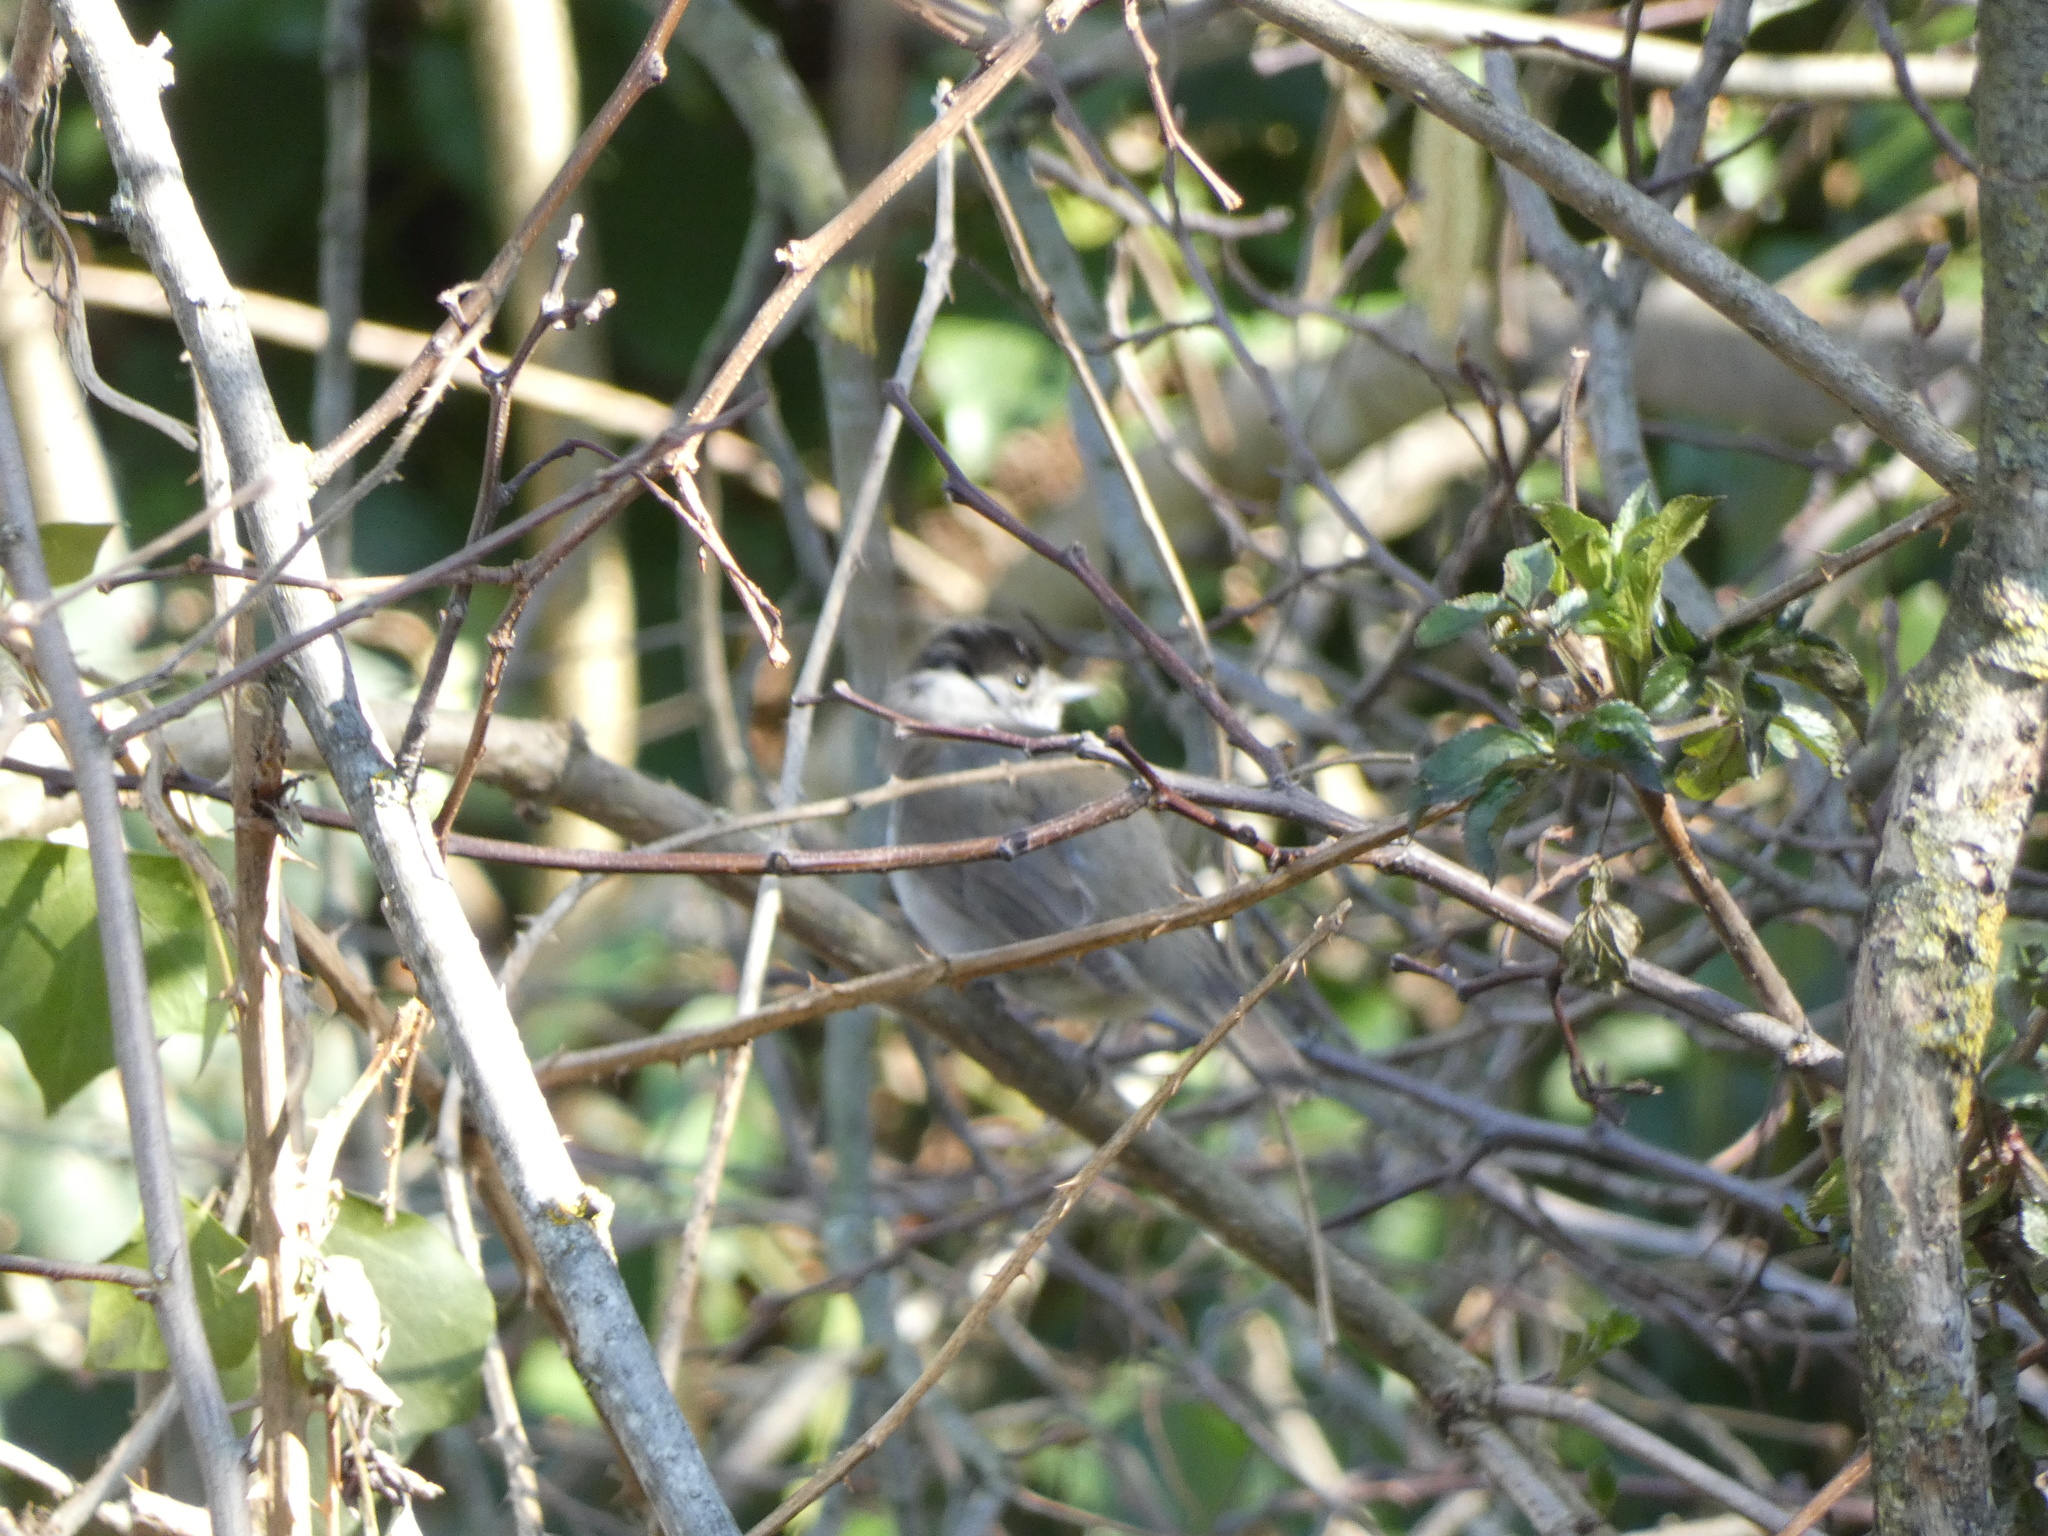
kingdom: Animalia
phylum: Chordata
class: Aves
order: Passeriformes
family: Sylviidae
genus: Sylvia
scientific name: Sylvia atricapilla
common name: Eurasian blackcap
